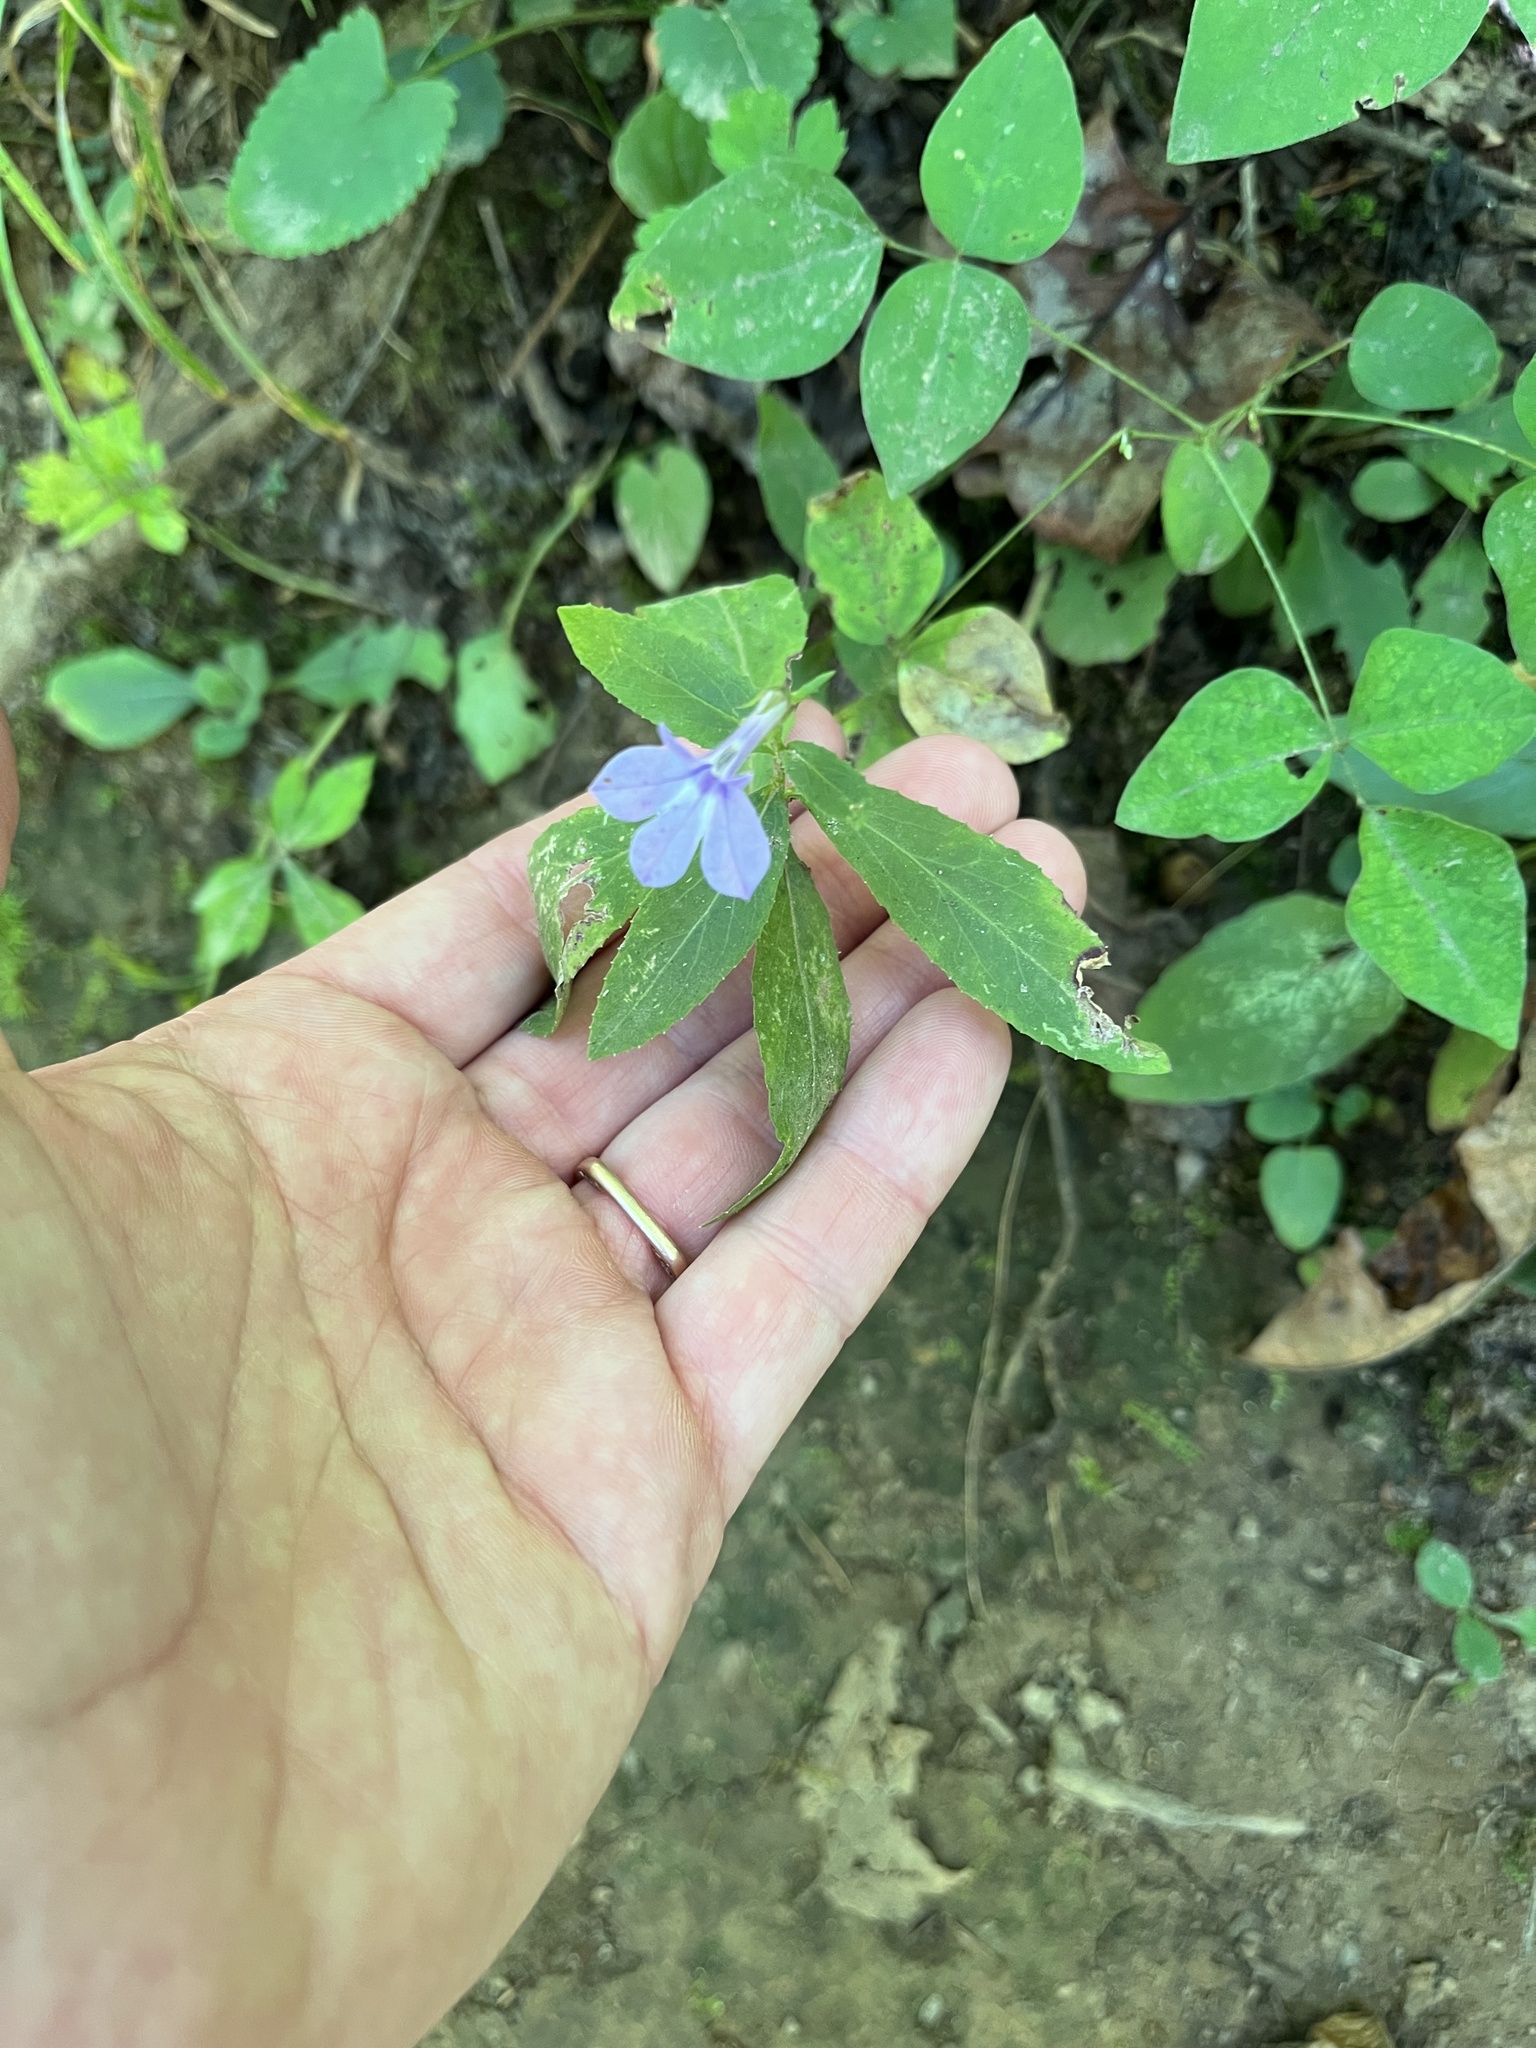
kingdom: Plantae
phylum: Tracheophyta
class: Magnoliopsida
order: Asterales
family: Campanulaceae
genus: Lobelia
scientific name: Lobelia puberula
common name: Purple dewdrop
